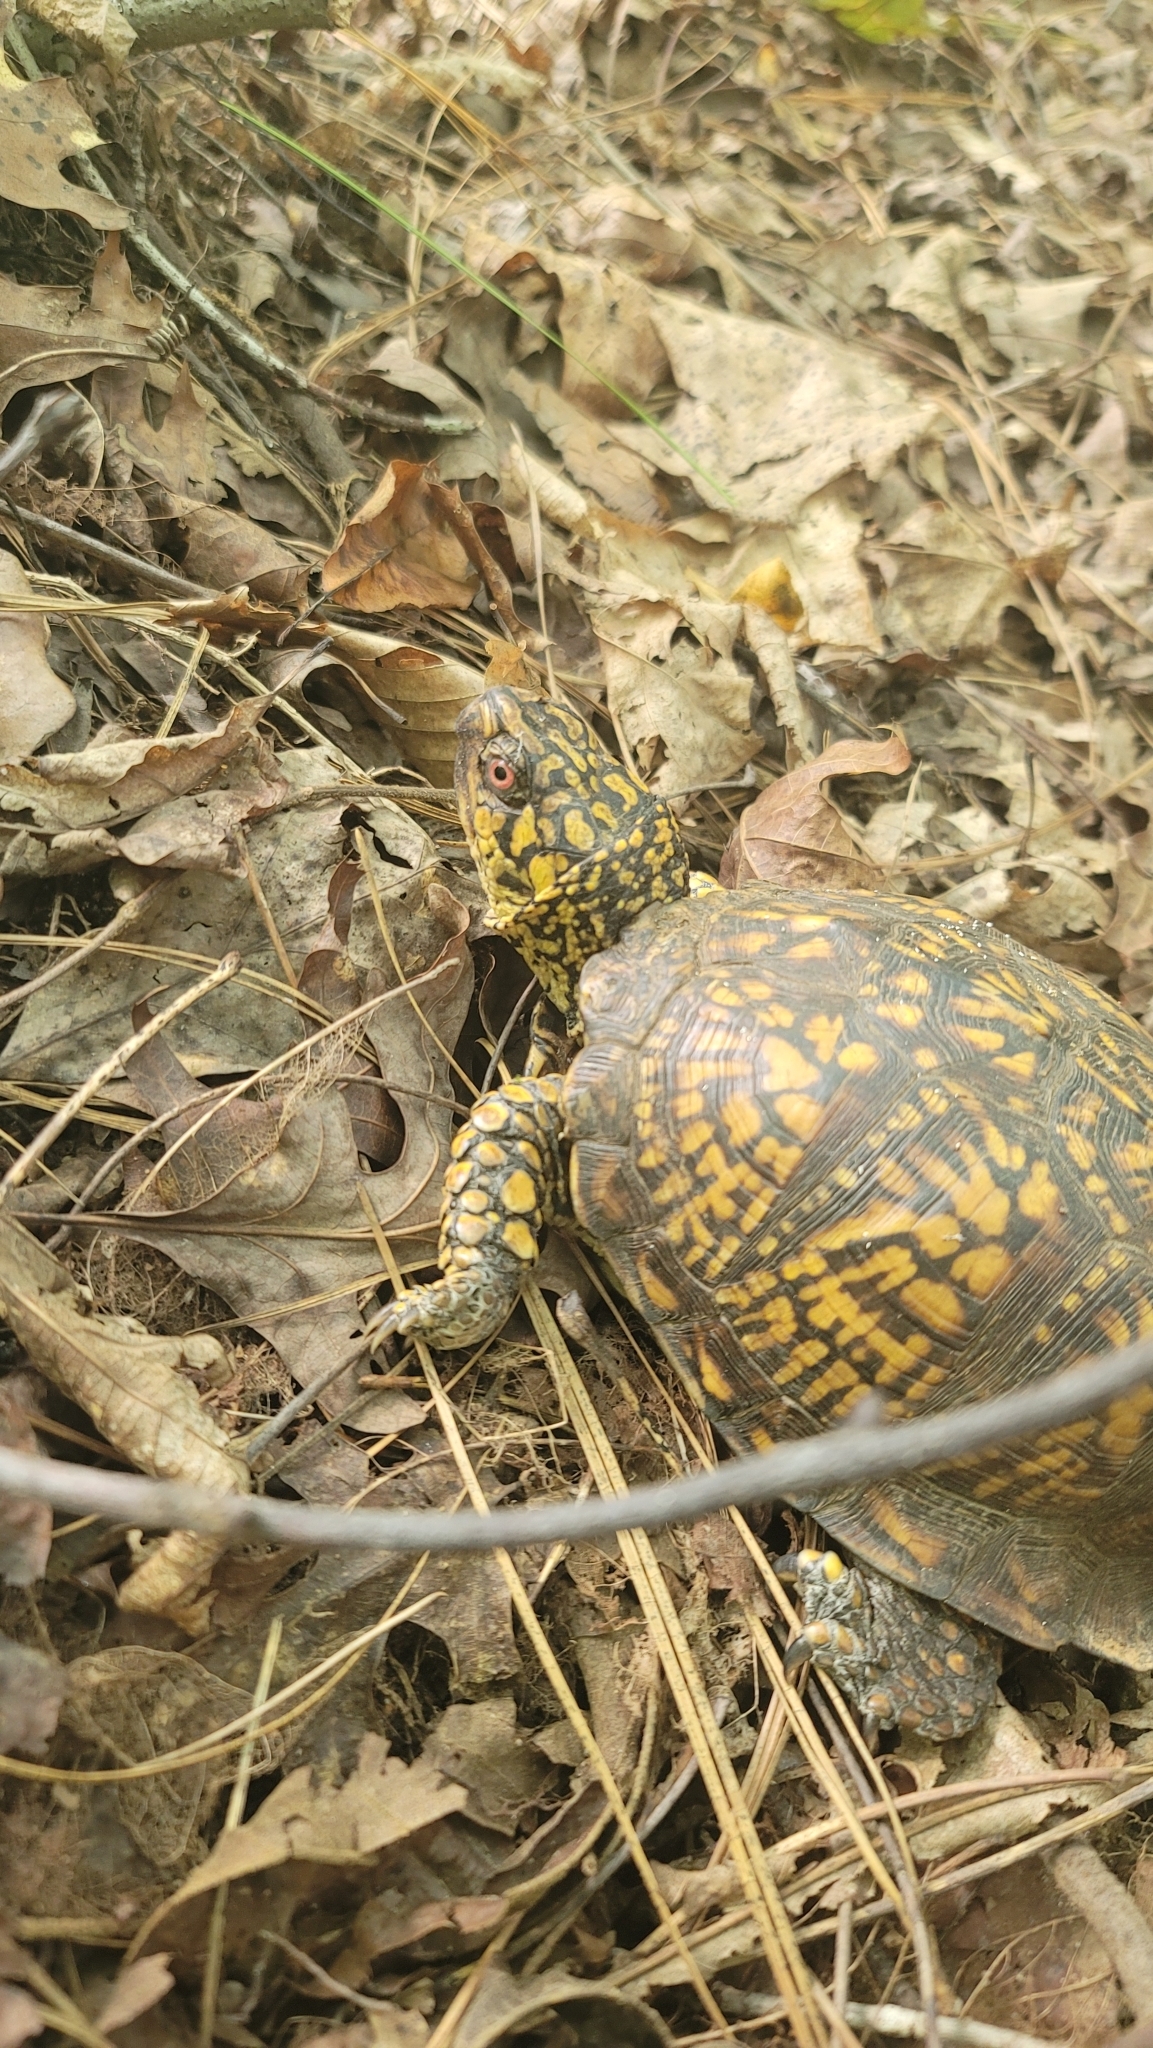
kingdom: Animalia
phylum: Chordata
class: Testudines
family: Emydidae
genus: Terrapene
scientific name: Terrapene carolina
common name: Common box turtle
